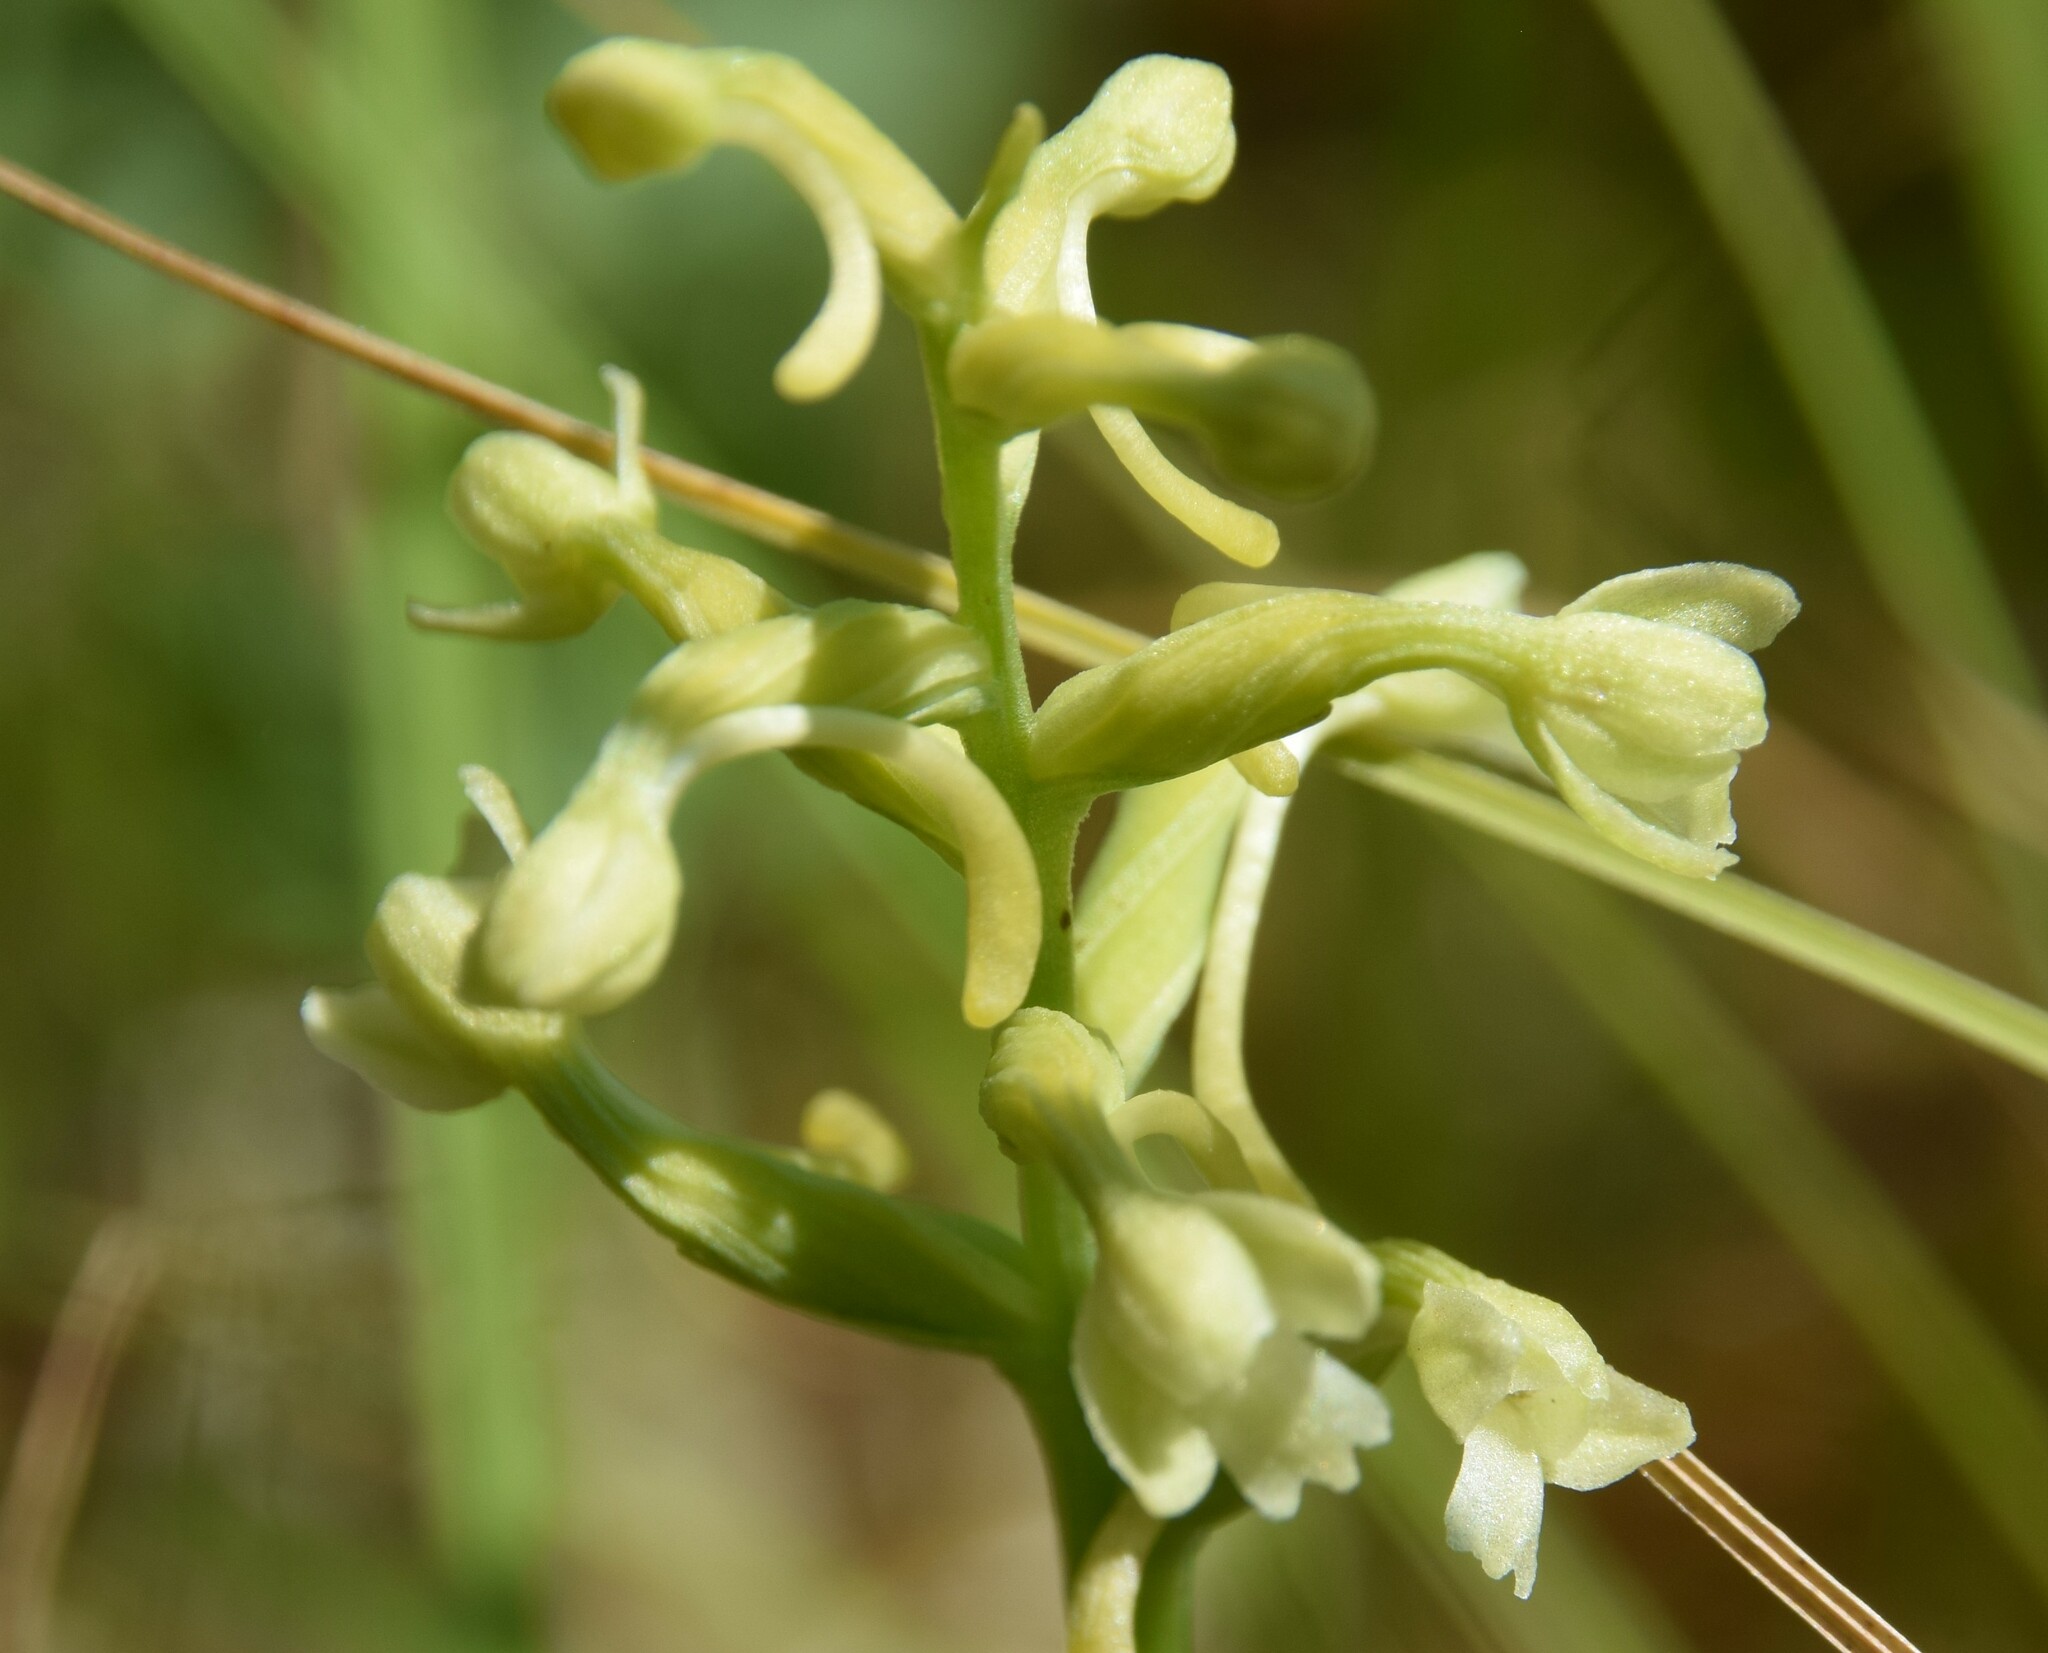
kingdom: Plantae
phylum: Tracheophyta
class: Liliopsida
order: Asparagales
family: Orchidaceae
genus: Platanthera
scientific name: Platanthera clavellata
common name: Club-spur orchid
